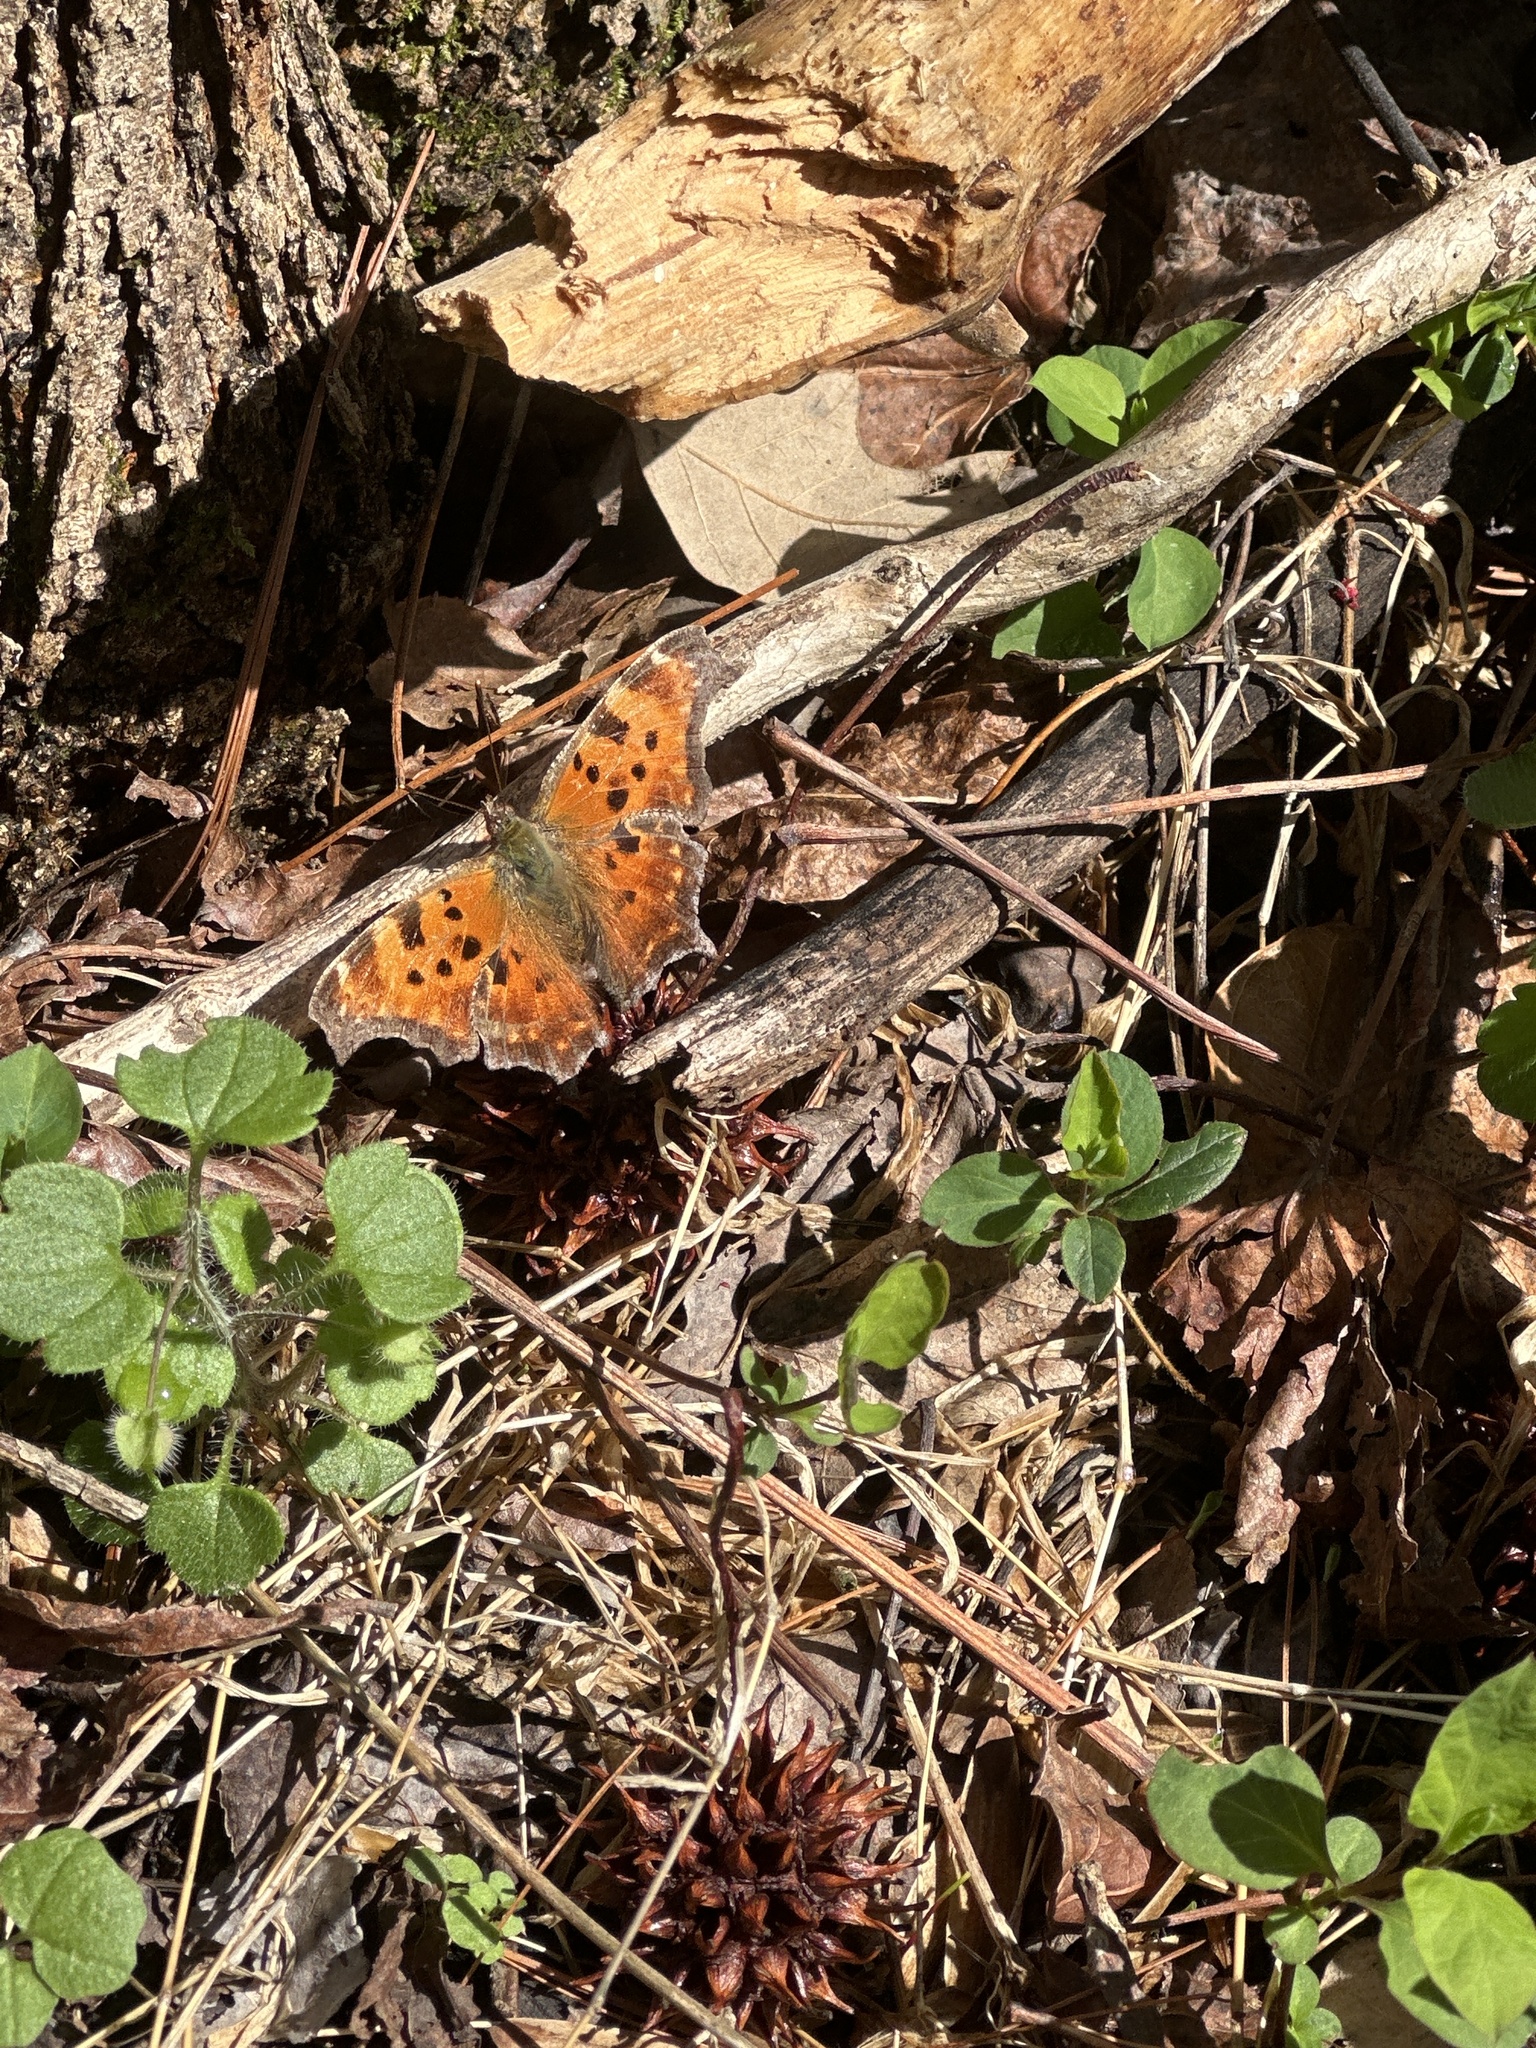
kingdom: Animalia
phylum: Arthropoda
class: Insecta
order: Lepidoptera
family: Nymphalidae
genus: Polygonia
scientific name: Polygonia comma
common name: Eastern comma
